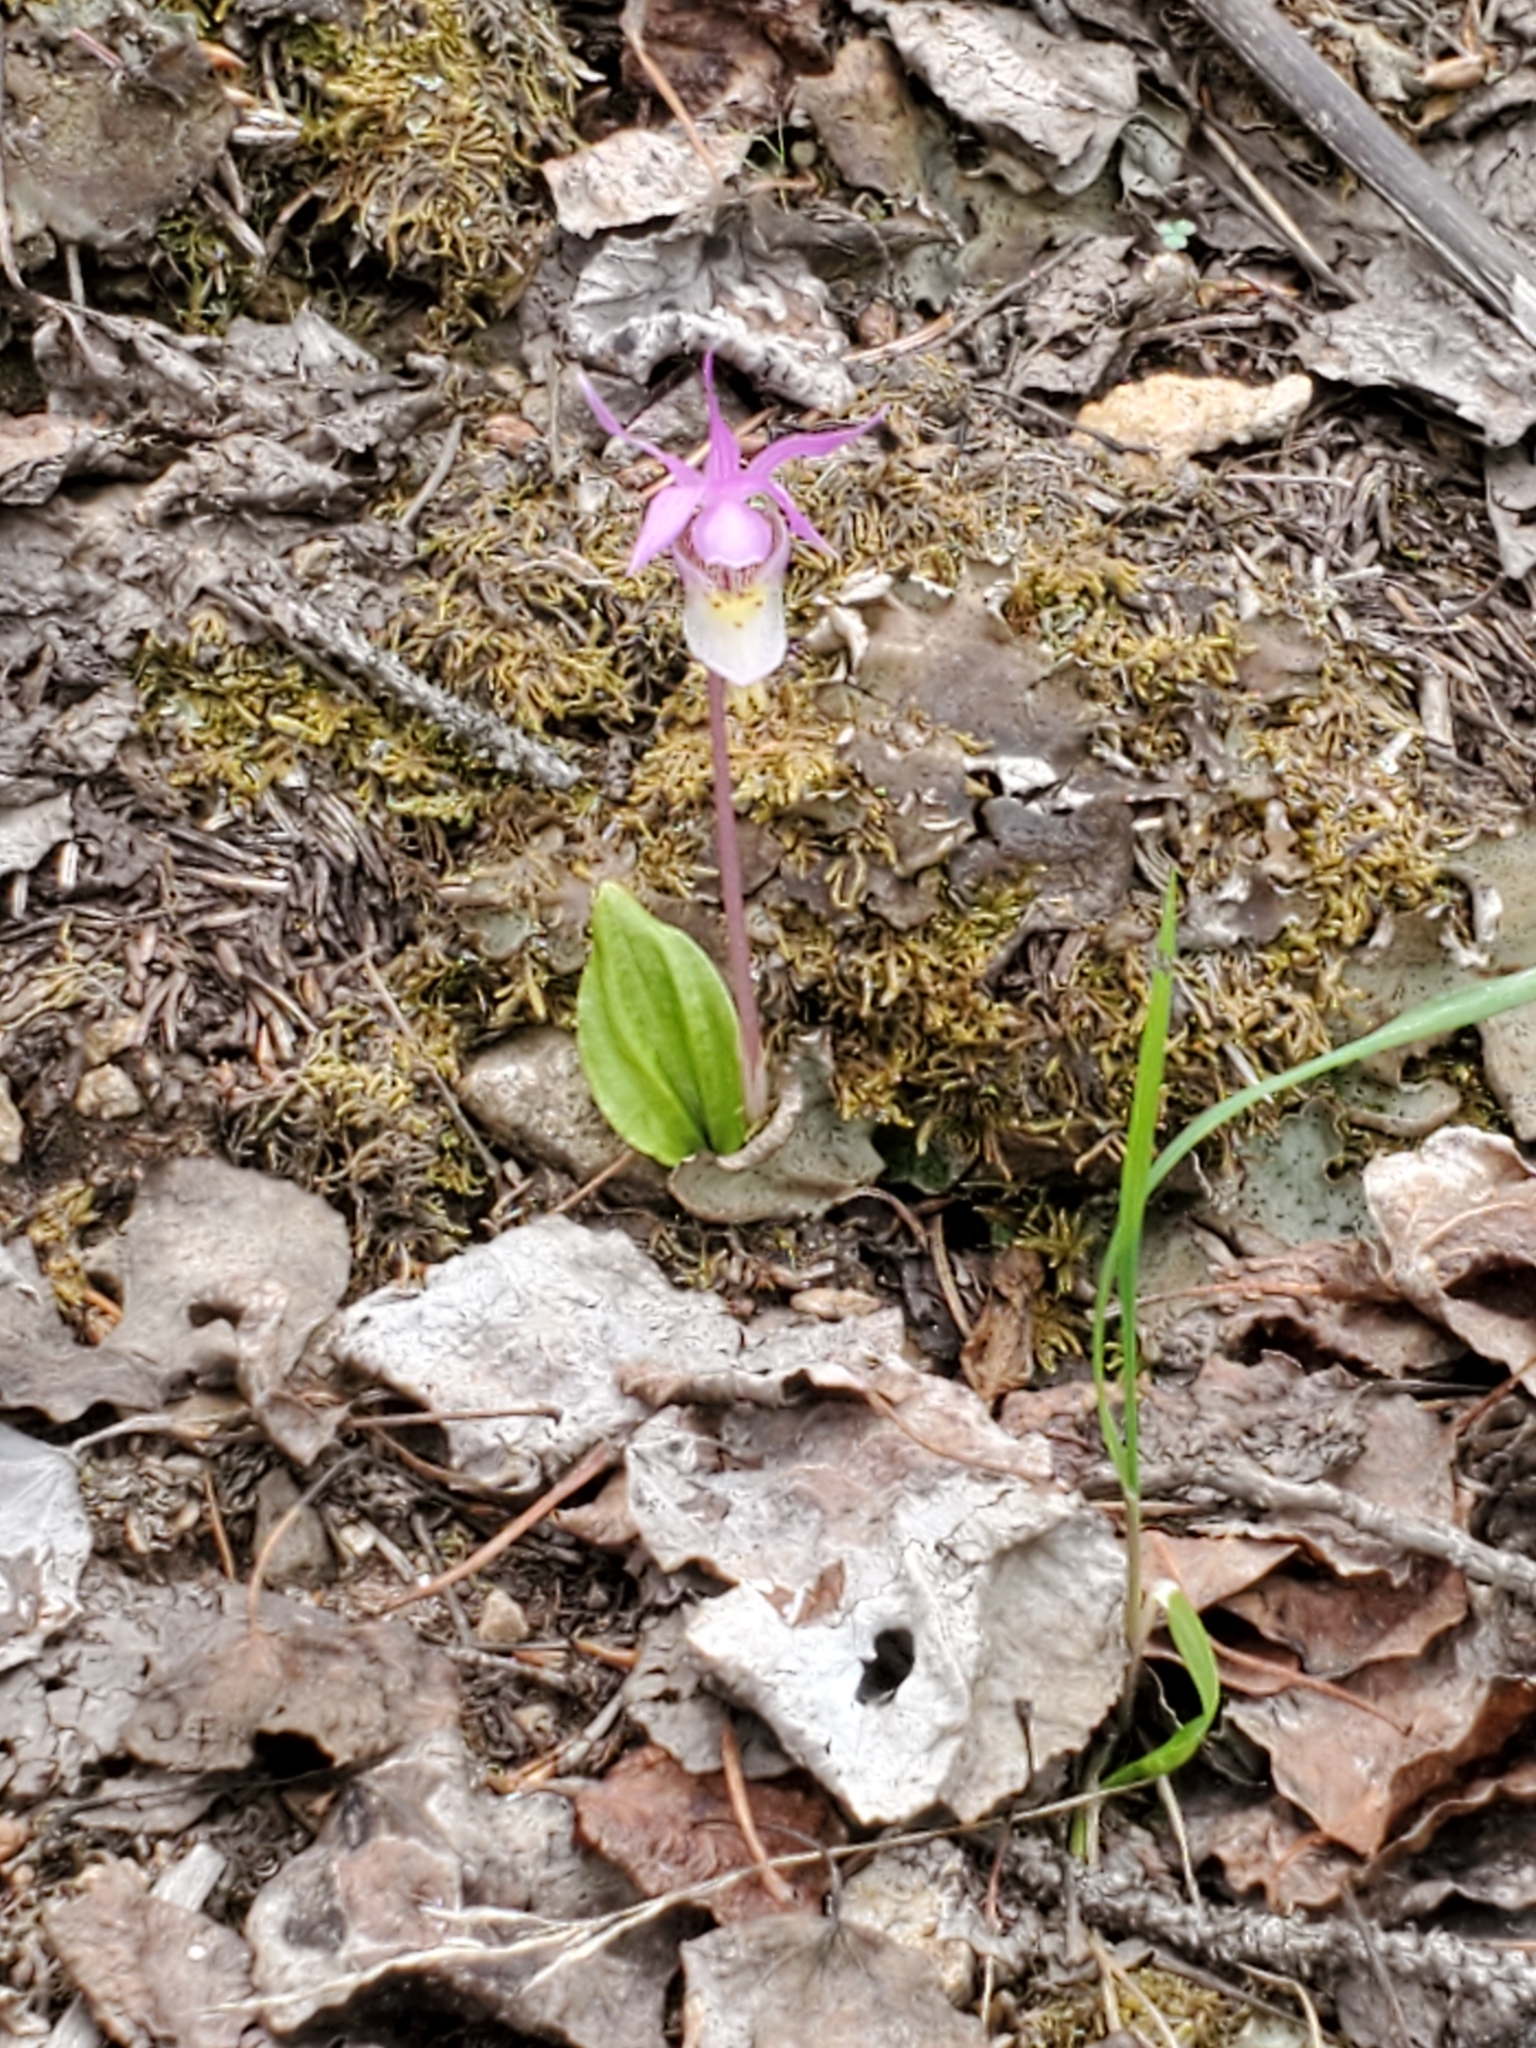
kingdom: Plantae
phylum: Tracheophyta
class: Liliopsida
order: Asparagales
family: Orchidaceae
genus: Calypso
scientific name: Calypso bulbosa
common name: Calypso
